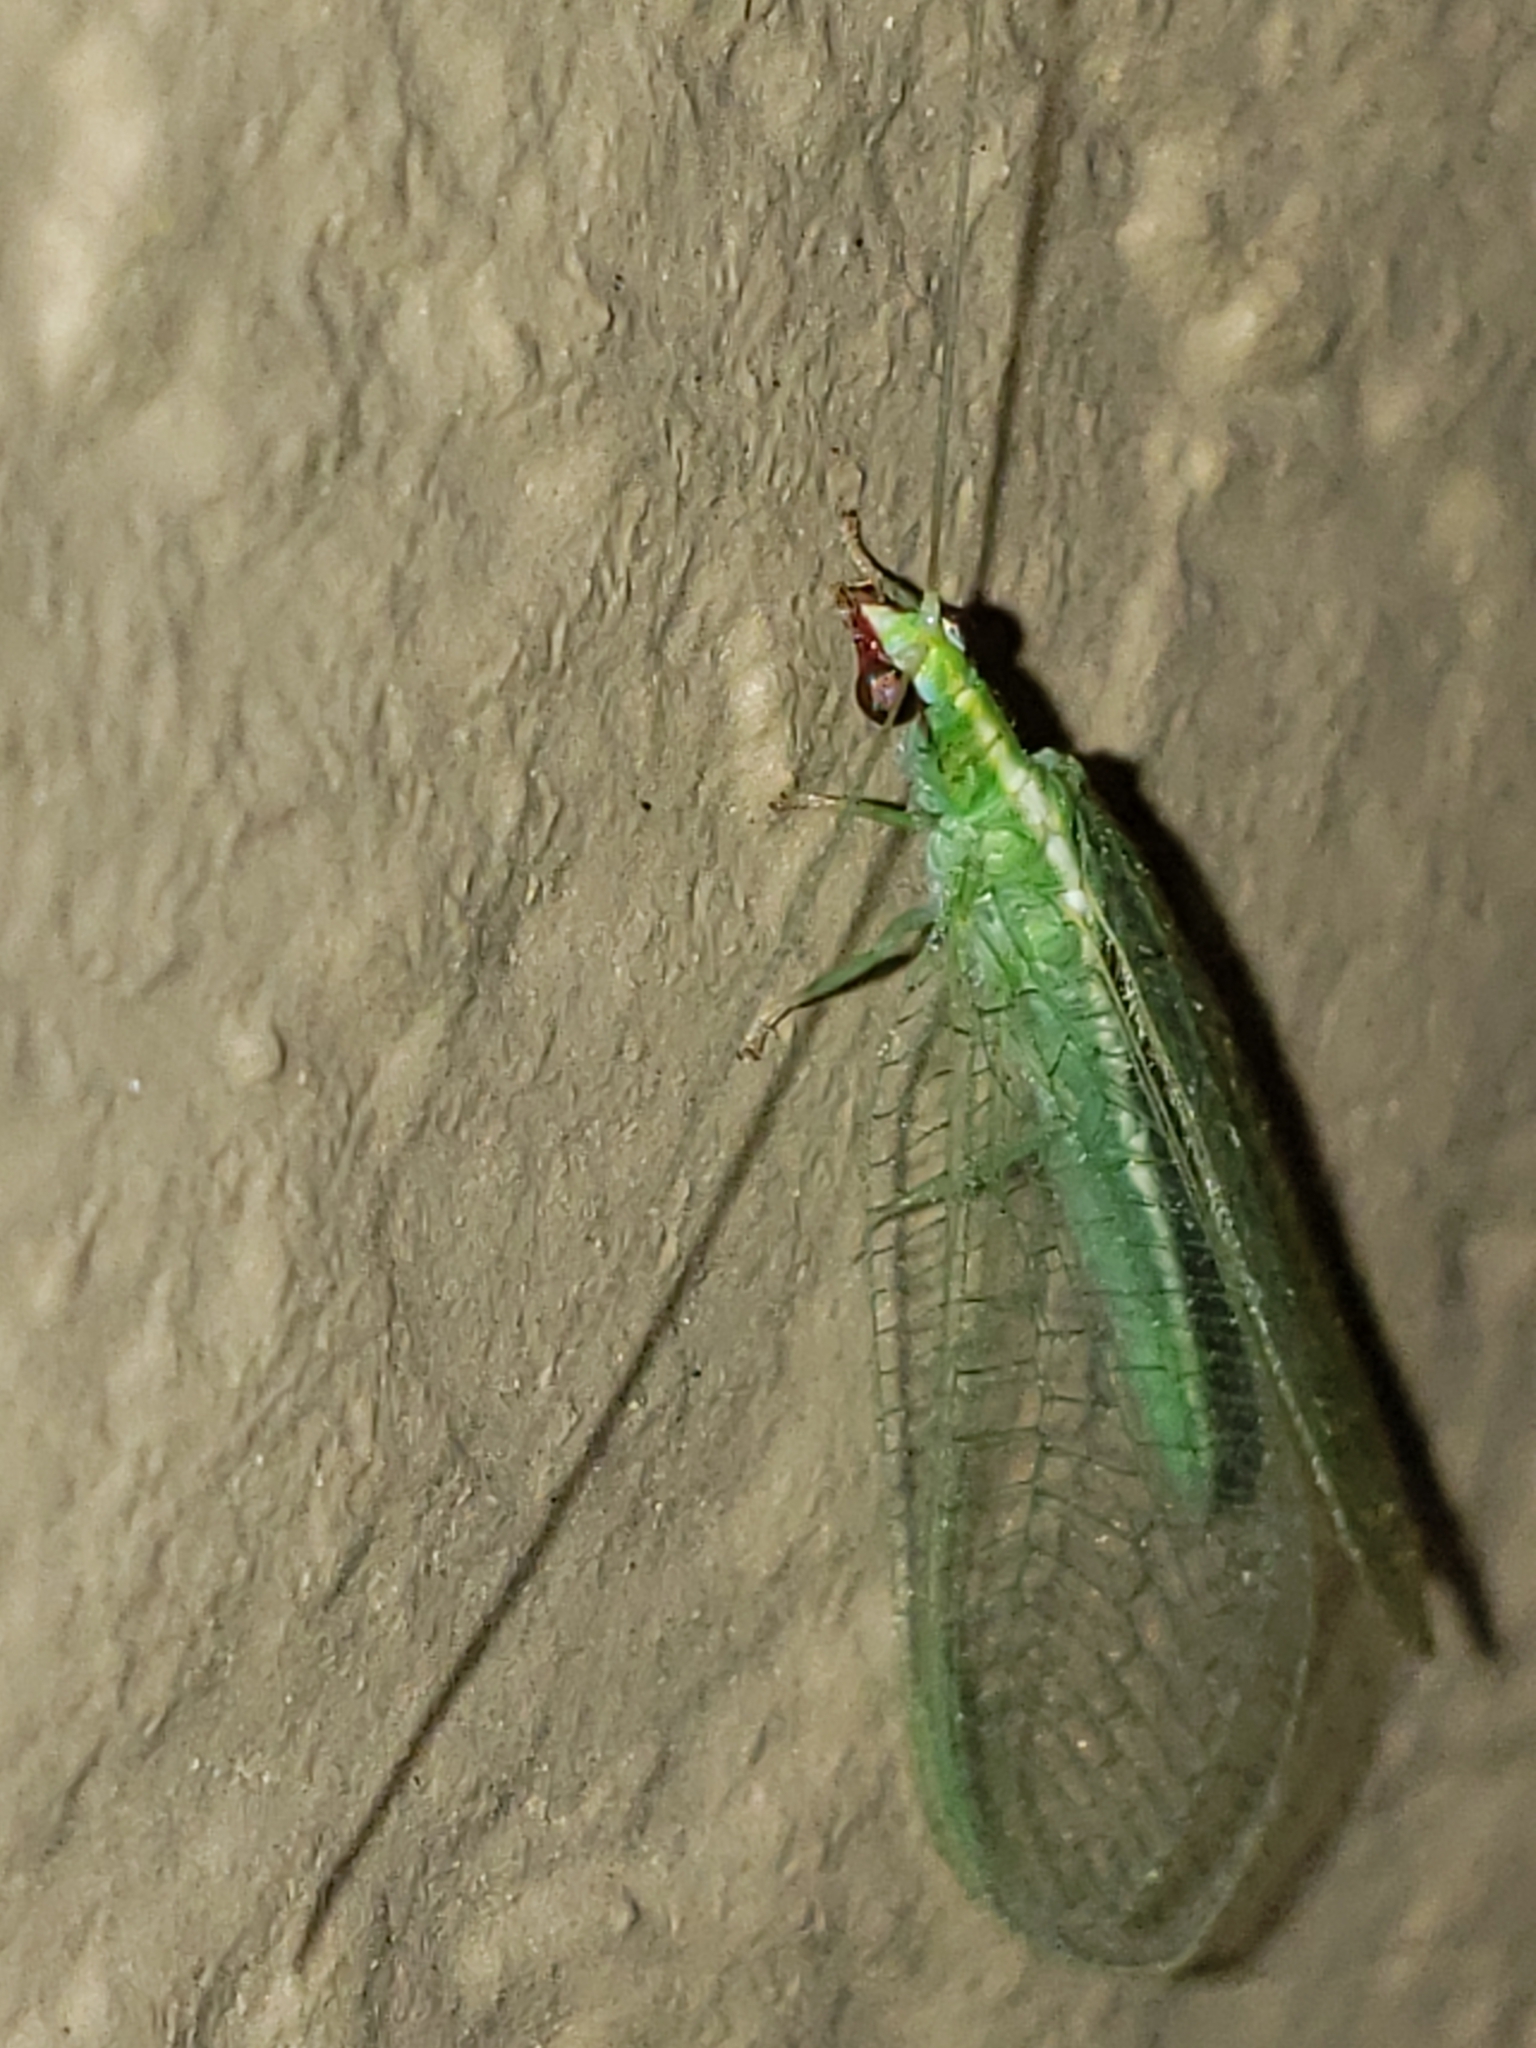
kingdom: Animalia
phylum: Arthropoda
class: Insecta
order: Neuroptera
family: Chrysopidae
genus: Chrysoperla
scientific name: Chrysoperla rufilabris
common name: Red-lipped green lacewing
